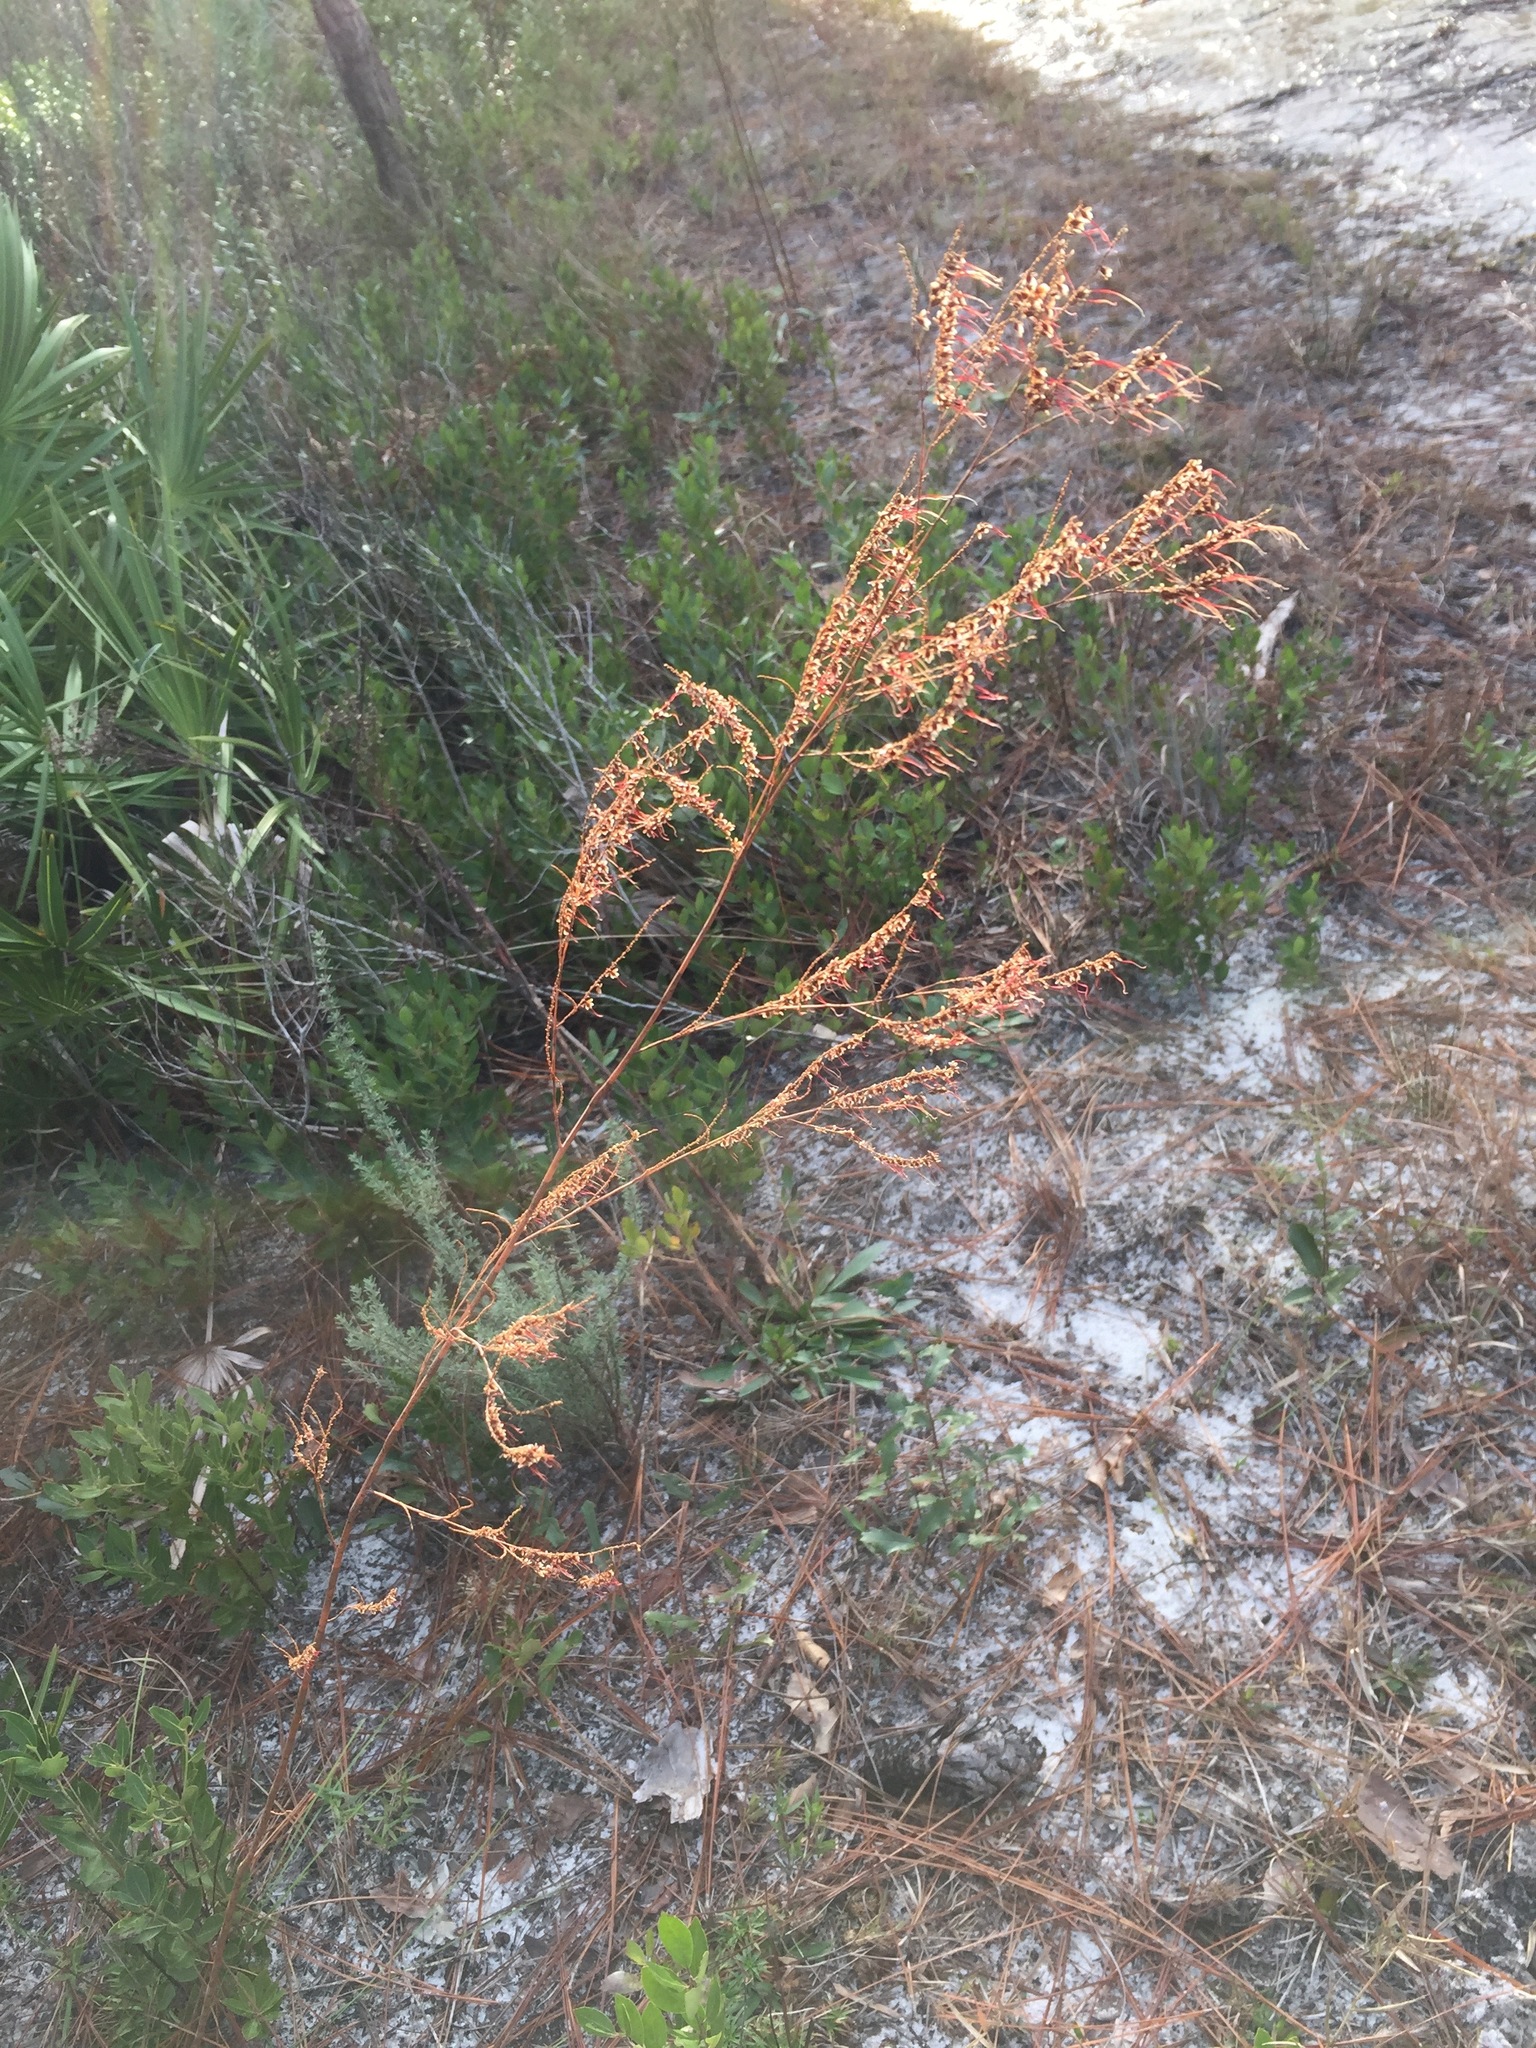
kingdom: Plantae
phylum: Tracheophyta
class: Magnoliopsida
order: Caryophyllales
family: Polygonaceae
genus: Polygonella
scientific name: Polygonella gracilis
